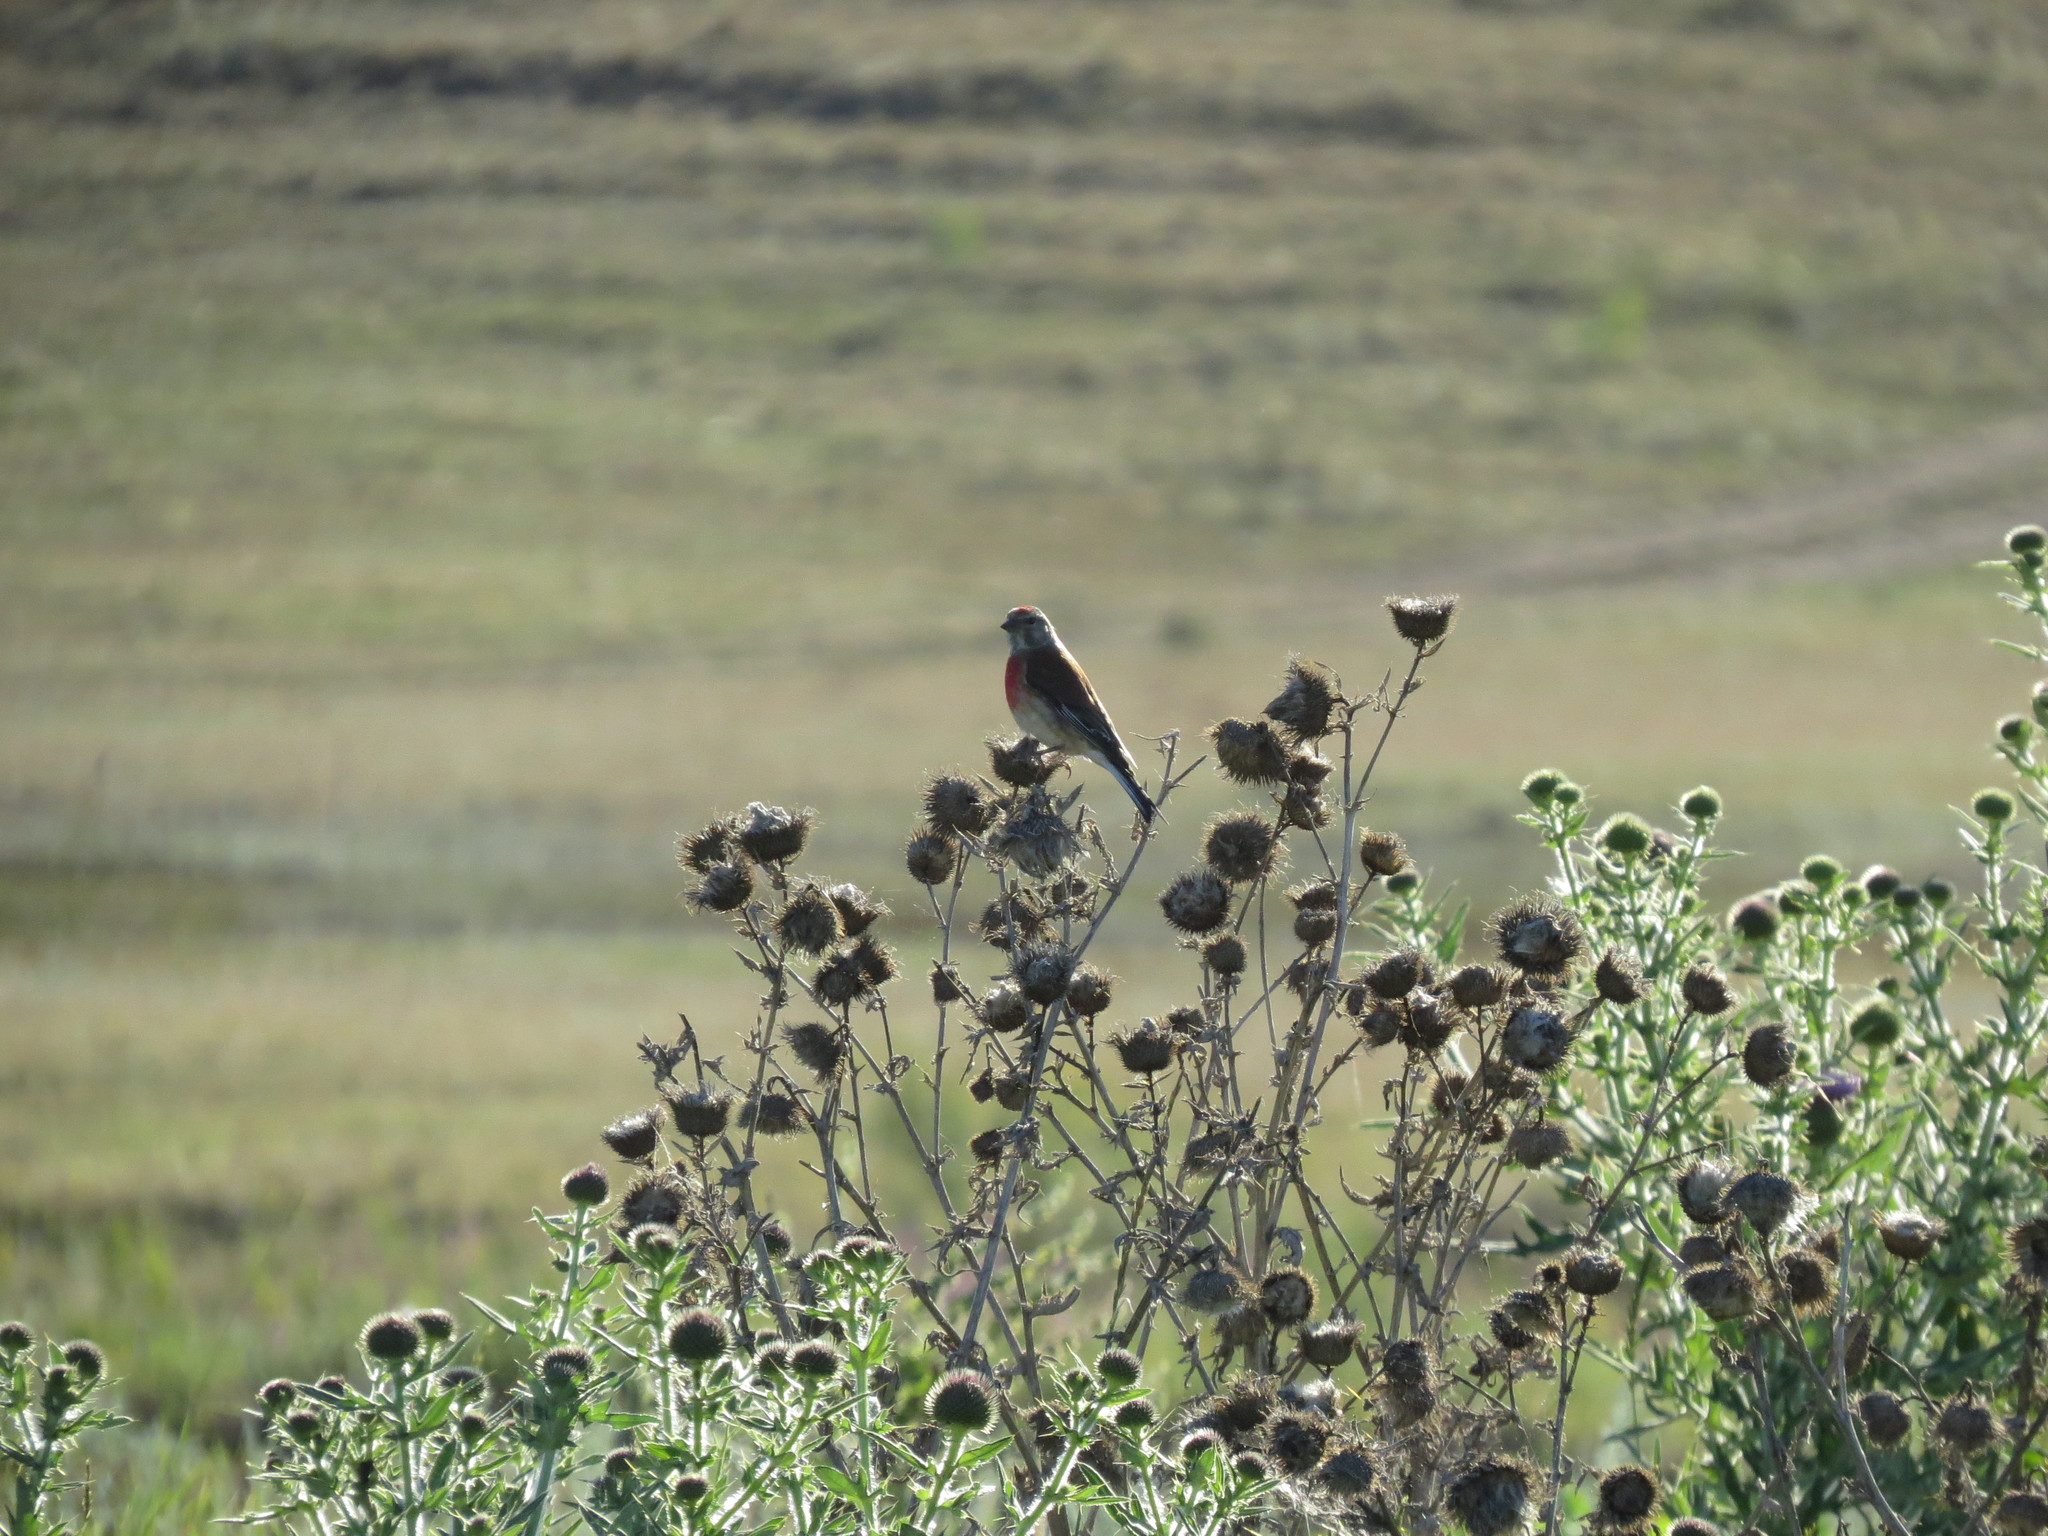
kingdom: Animalia
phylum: Chordata
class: Aves
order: Passeriformes
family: Fringillidae
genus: Linaria
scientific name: Linaria cannabina
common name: Common linnet
